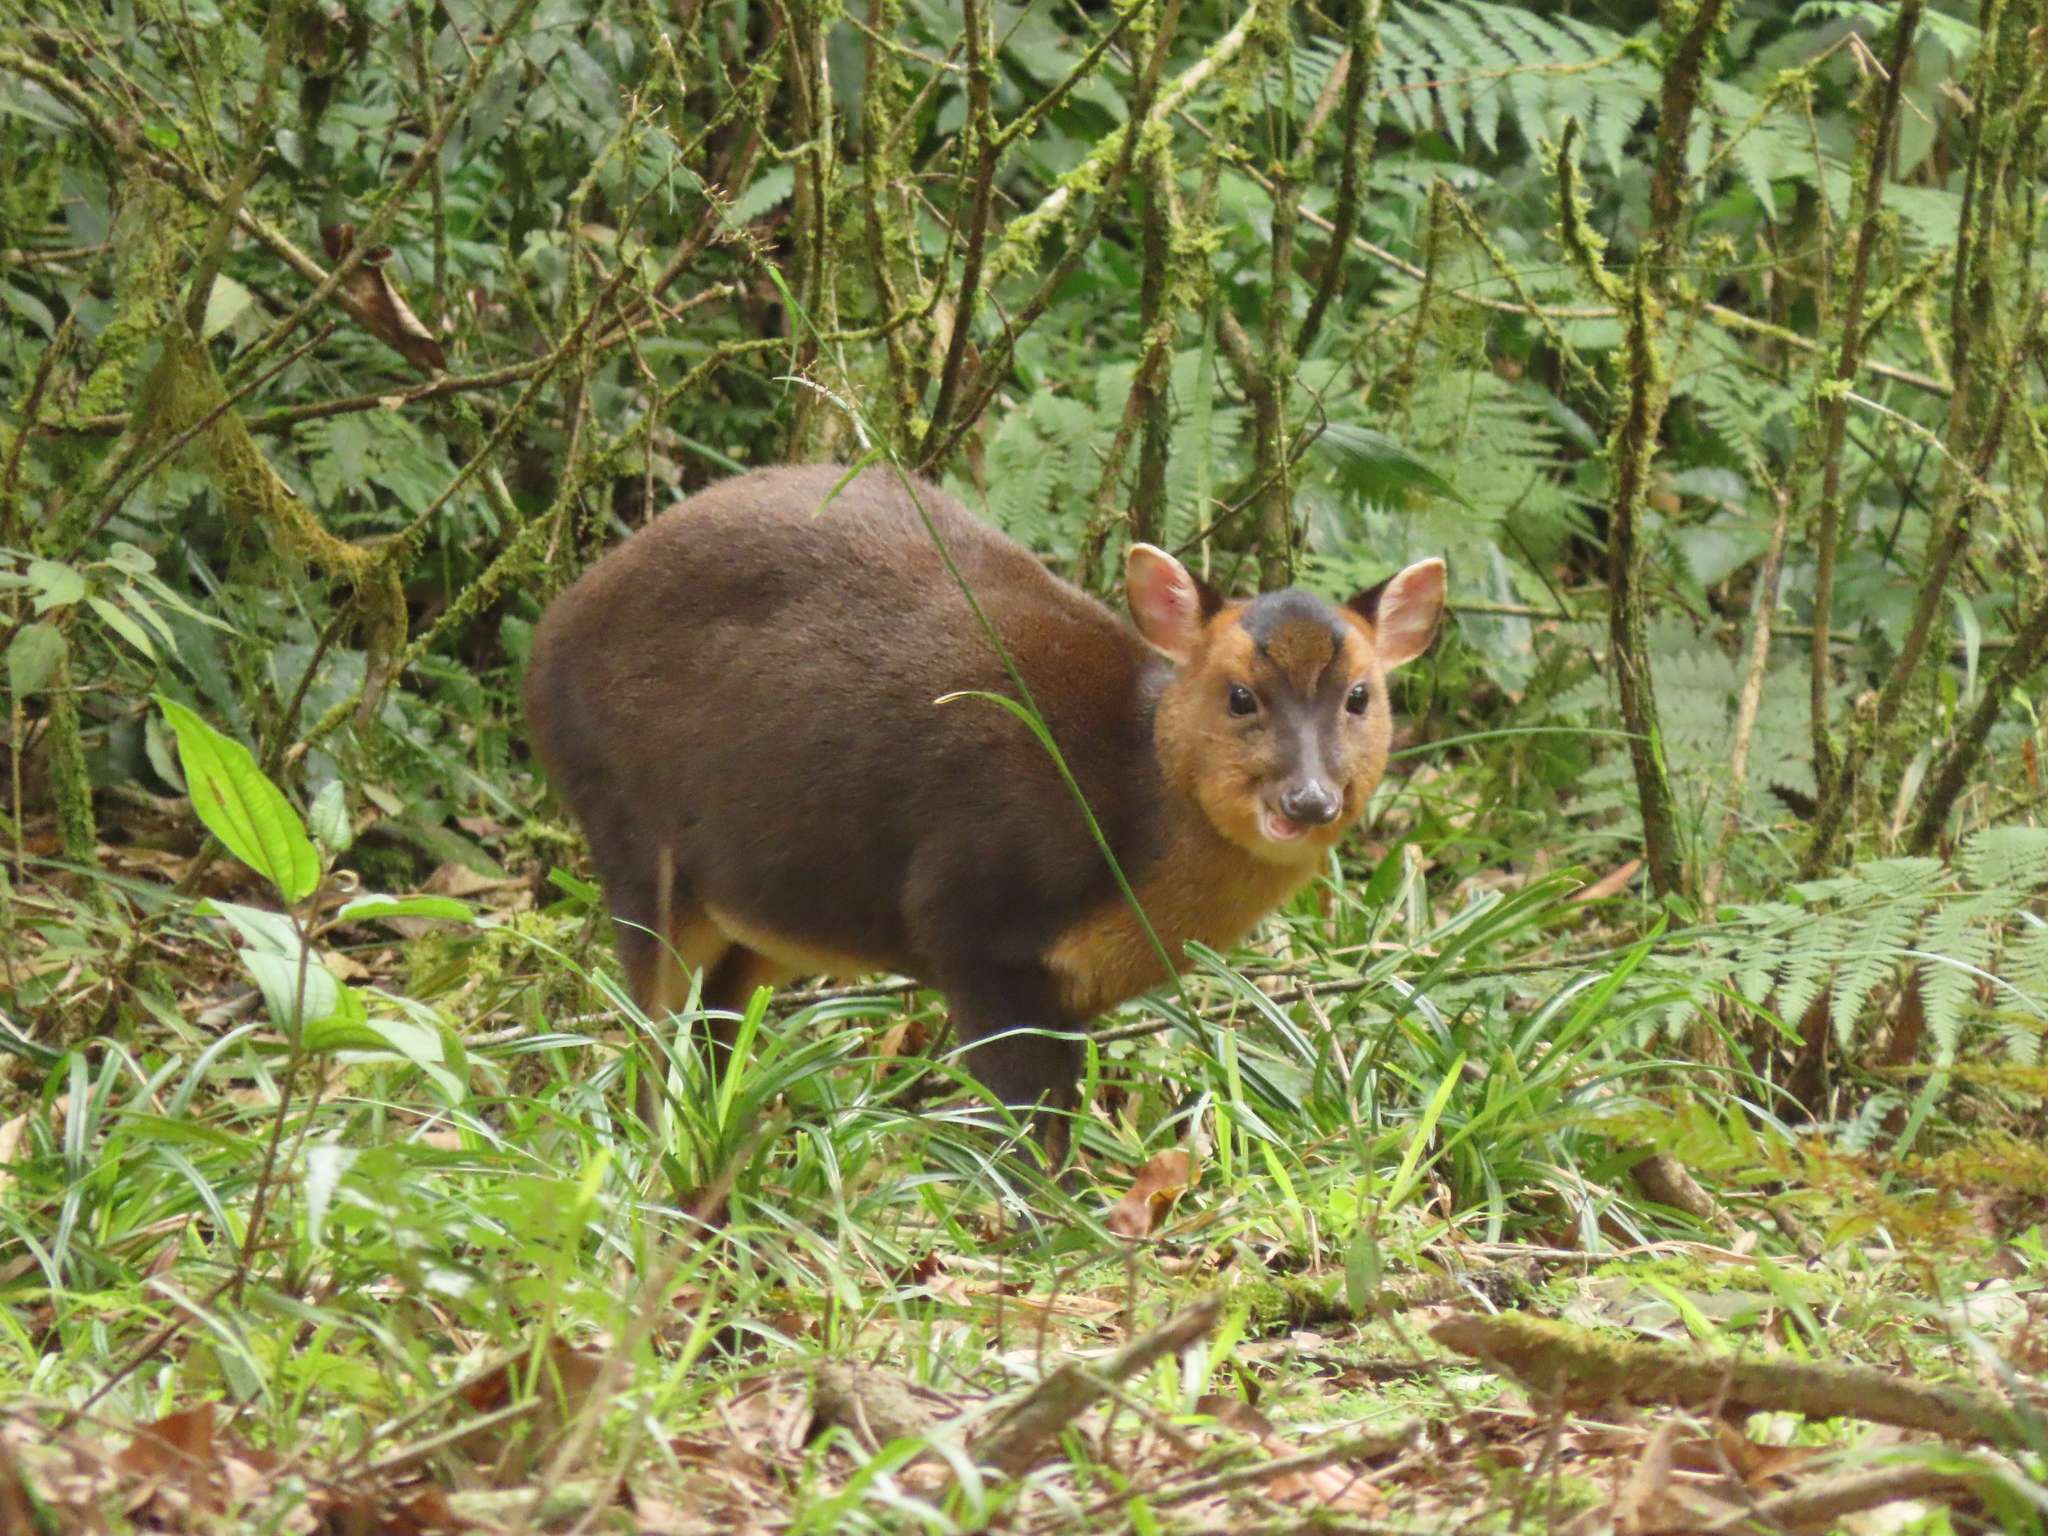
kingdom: Animalia
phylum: Chordata
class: Mammalia
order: Artiodactyla
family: Cervidae
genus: Muntiacus
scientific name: Muntiacus reevesi
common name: Reeves' muntjac
